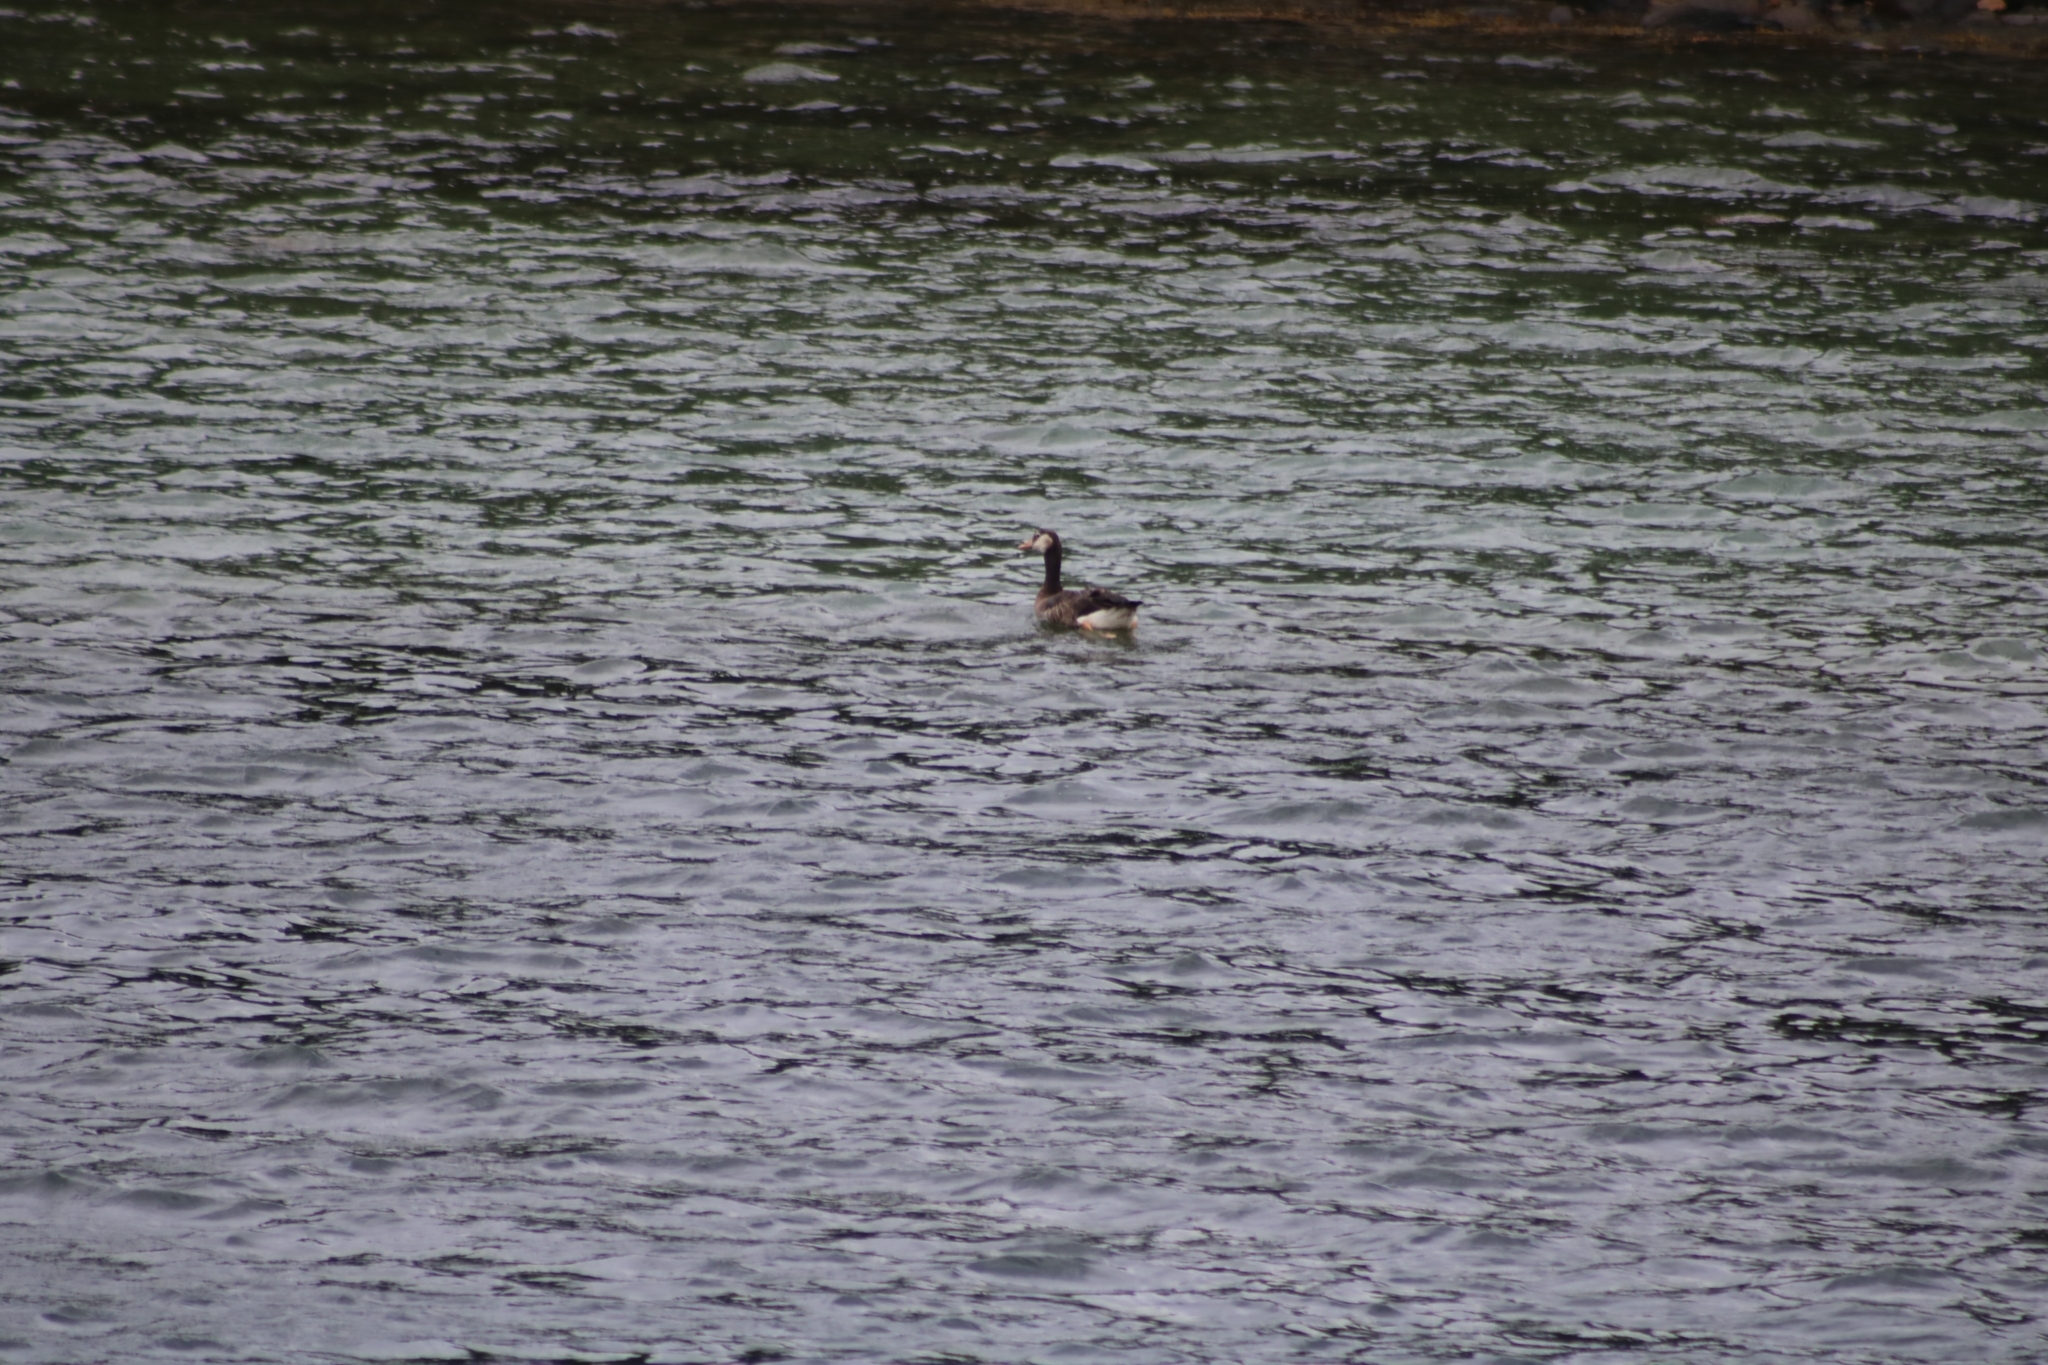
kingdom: Animalia
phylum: Chordata
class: Aves
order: Anseriformes
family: Anatidae
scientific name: Anatidae
